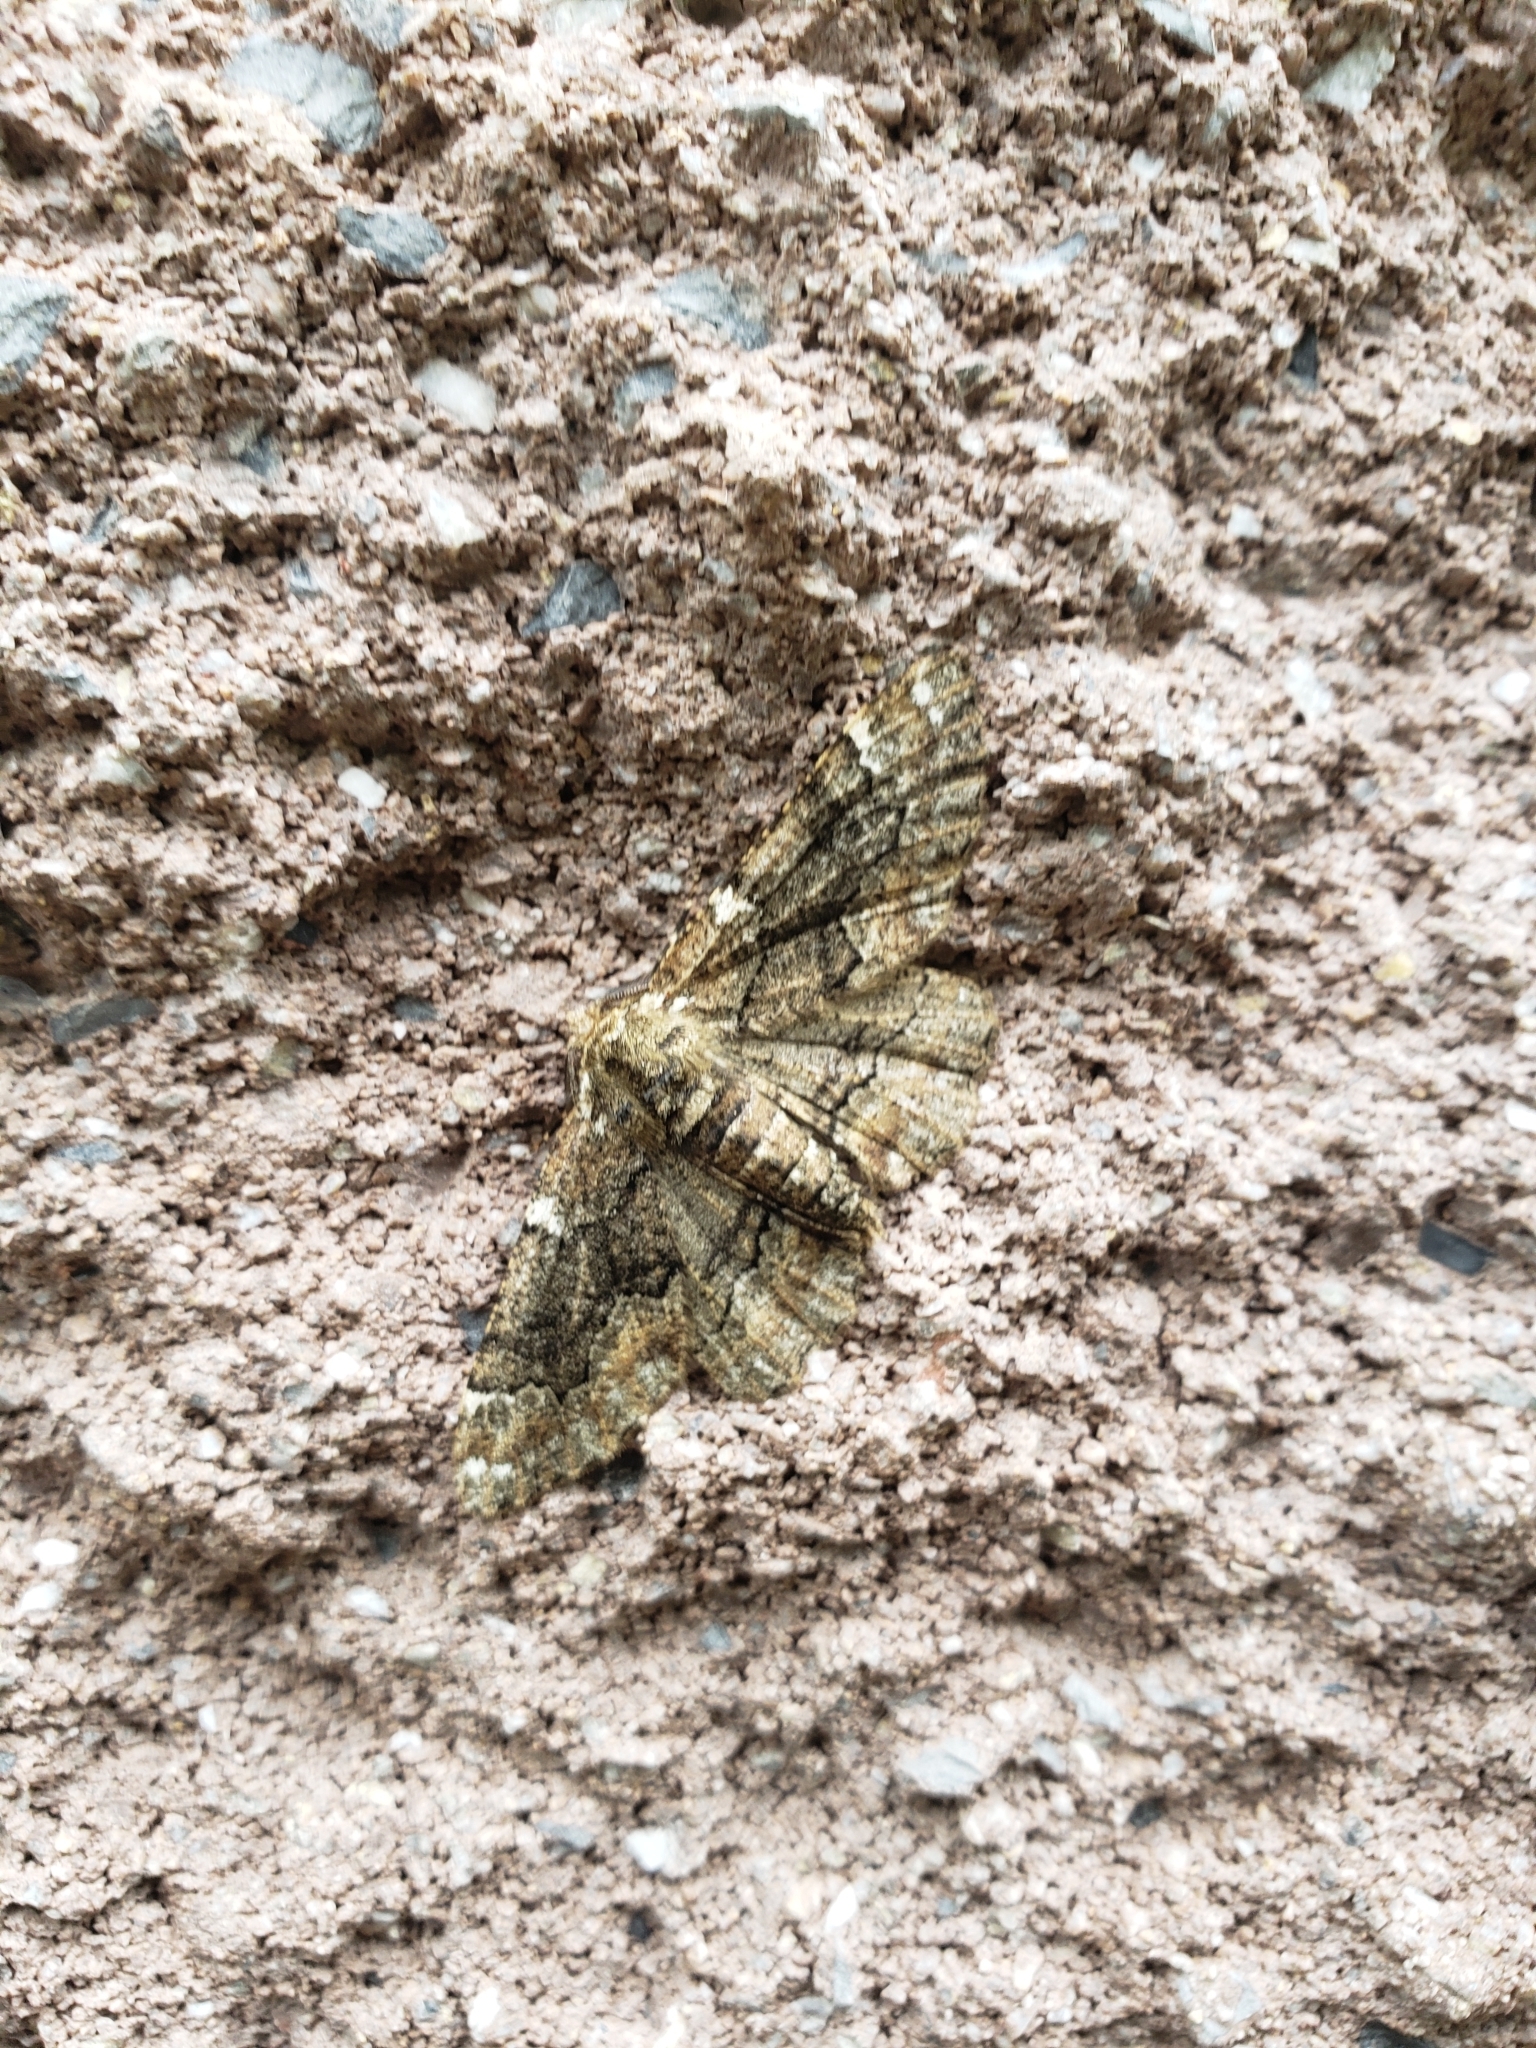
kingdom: Animalia
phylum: Arthropoda
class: Insecta
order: Lepidoptera
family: Geometridae
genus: Phaeoura
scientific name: Phaeoura quernaria
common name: Oak beauty
